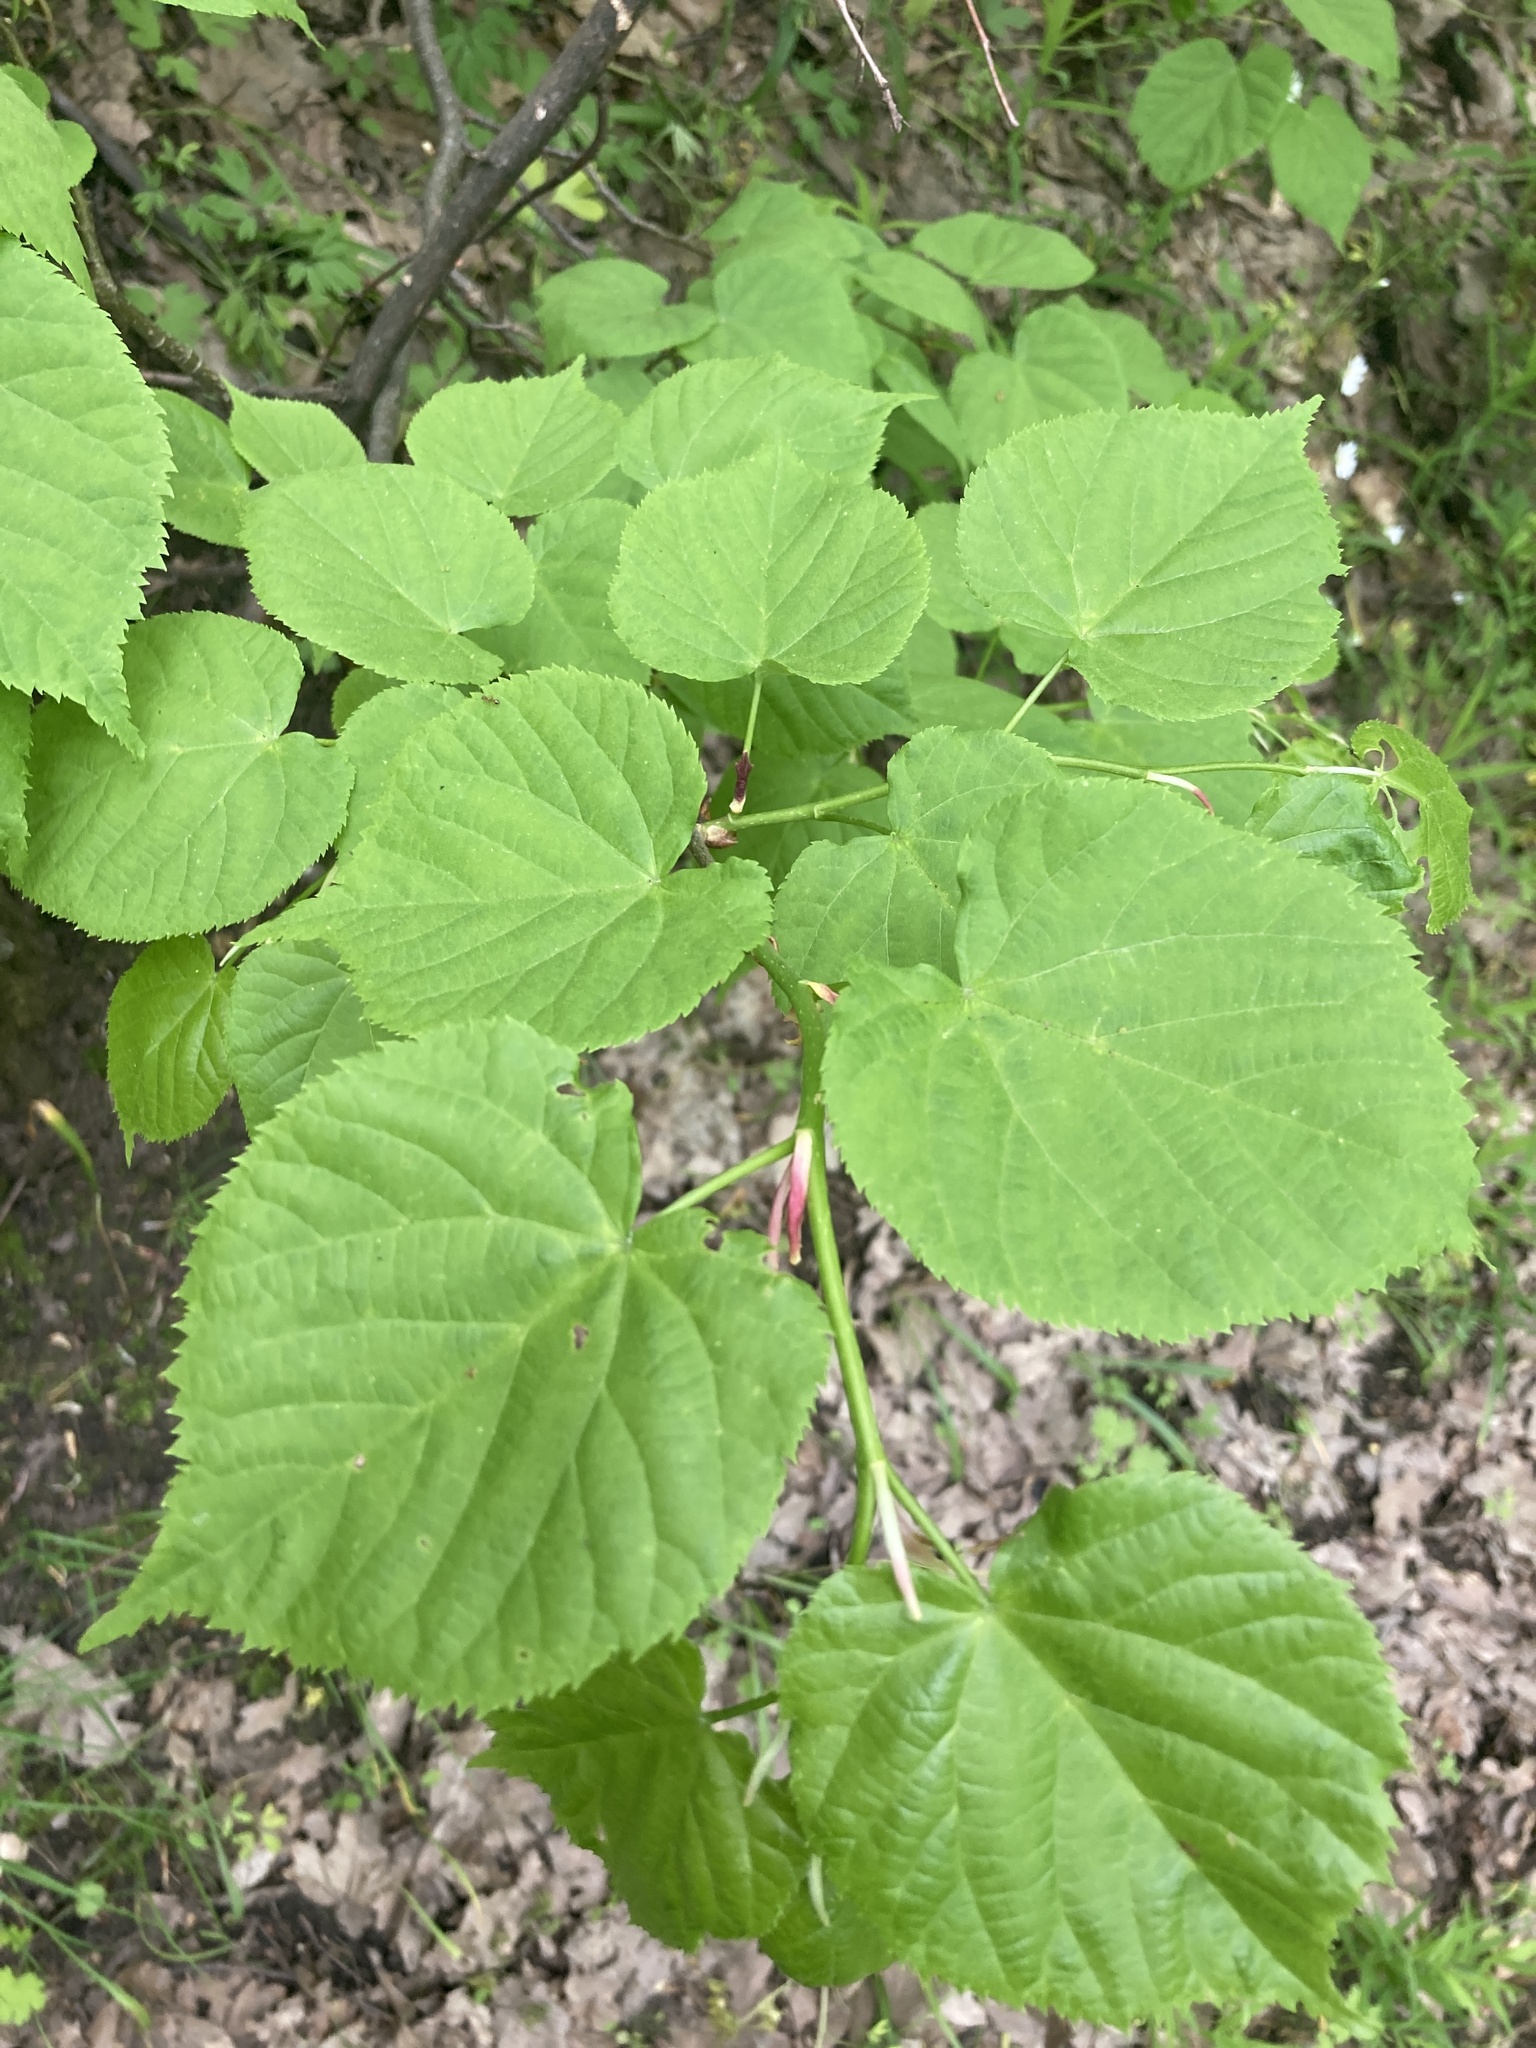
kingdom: Plantae
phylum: Tracheophyta
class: Magnoliopsida
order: Malvales
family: Malvaceae
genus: Tilia
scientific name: Tilia cordata
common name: Small-leaved lime
